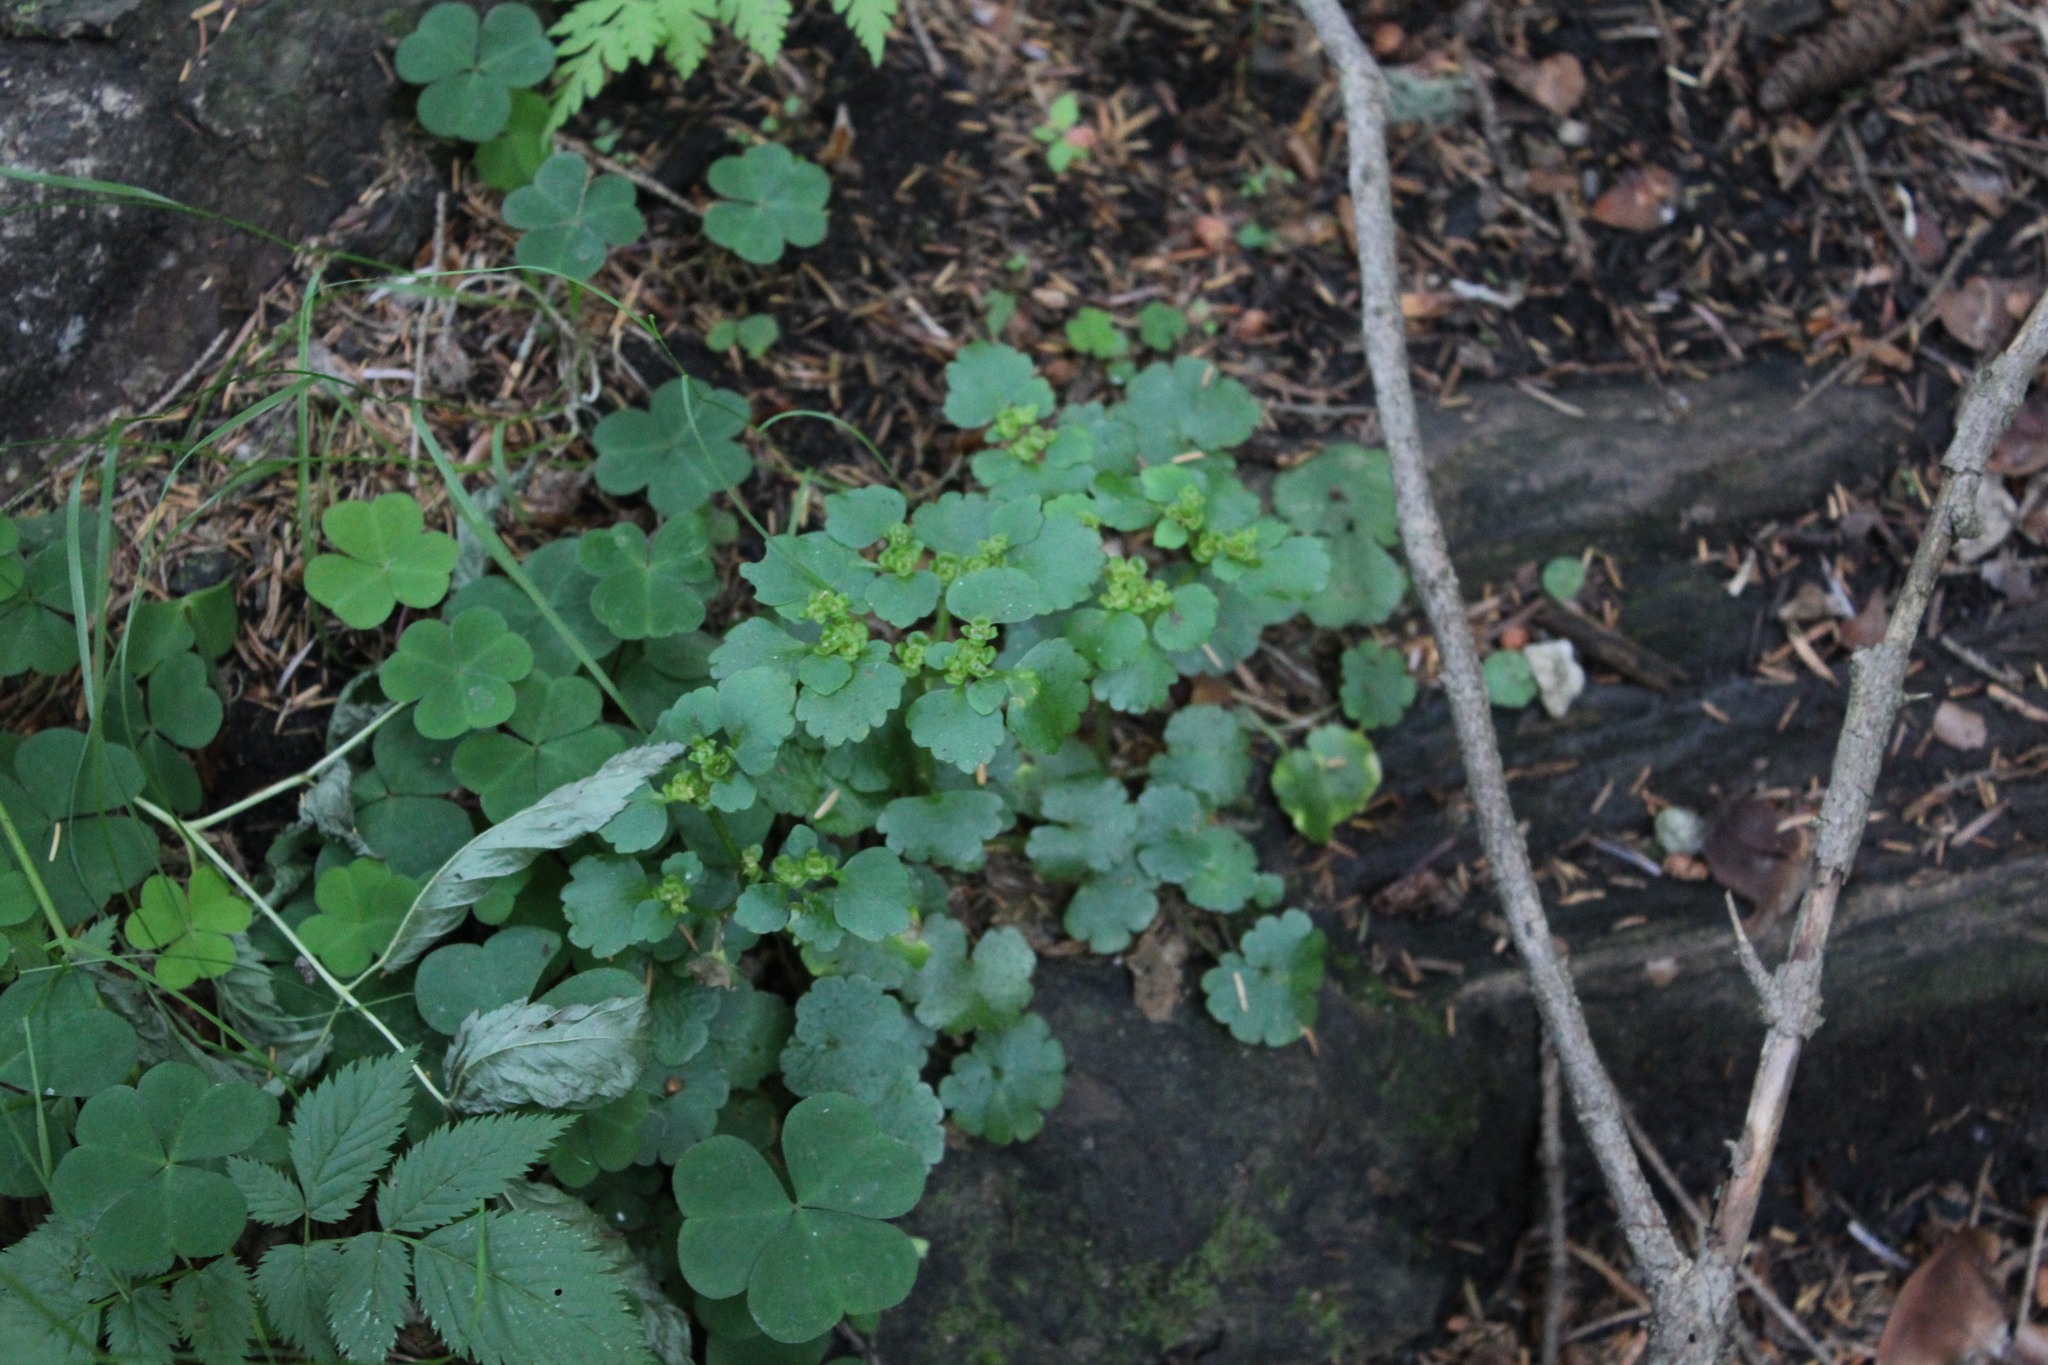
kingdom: Plantae
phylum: Tracheophyta
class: Magnoliopsida
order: Saxifragales
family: Saxifragaceae
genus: Chrysosplenium
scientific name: Chrysosplenium alternifolium
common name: Alternate-leaved golden-saxifrage
